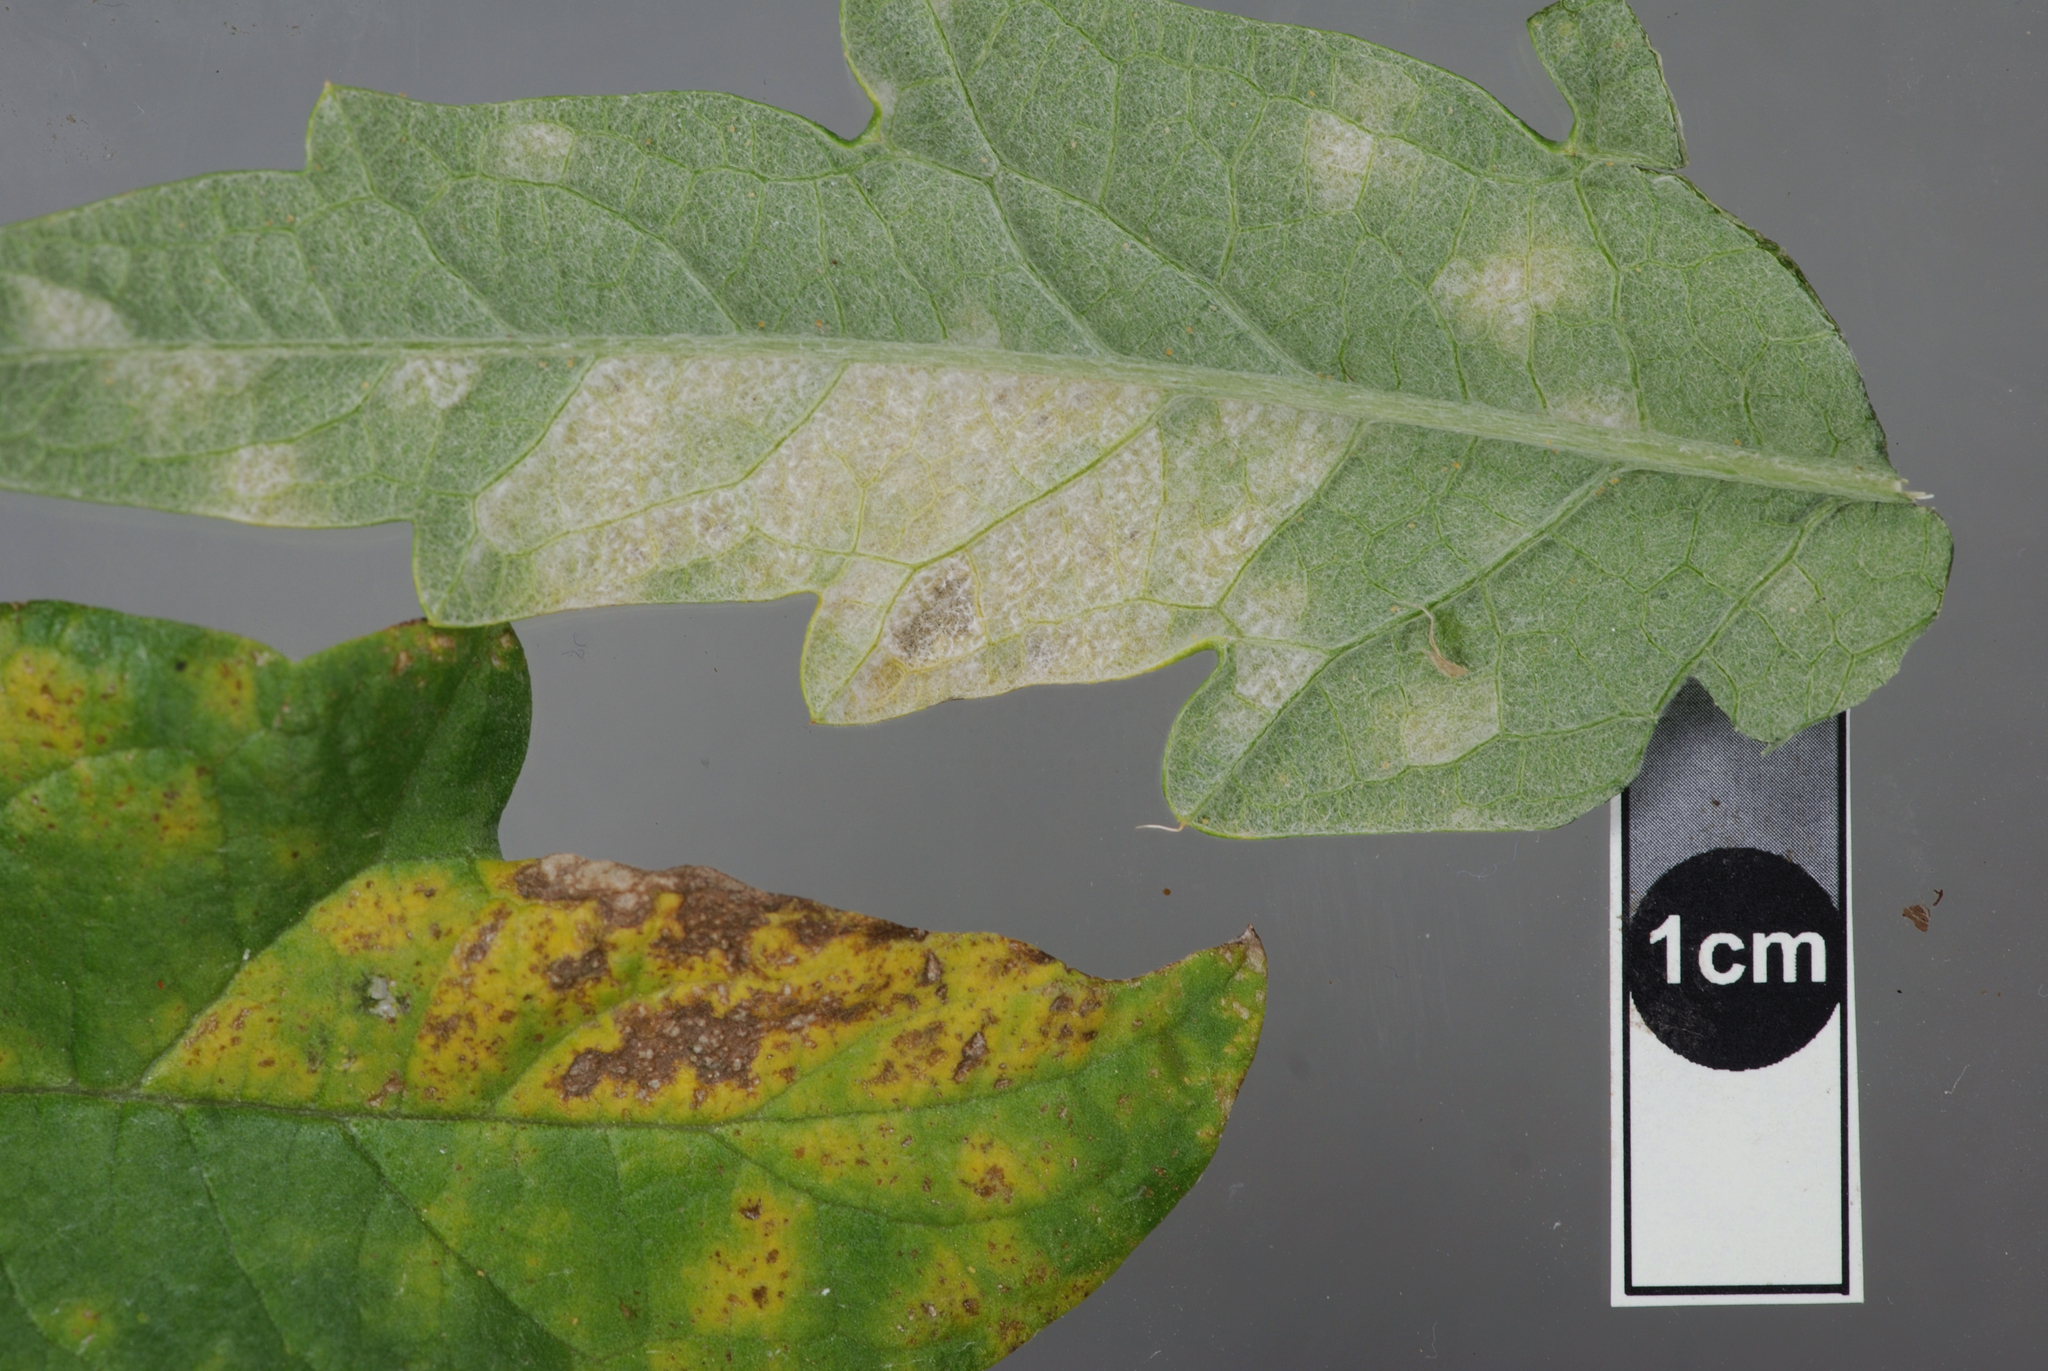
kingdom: Fungi
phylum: Ascomycota
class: Leotiomycetes
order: Helotiales
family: Erysiphaceae
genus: Leveillula
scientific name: Leveillula lappae
